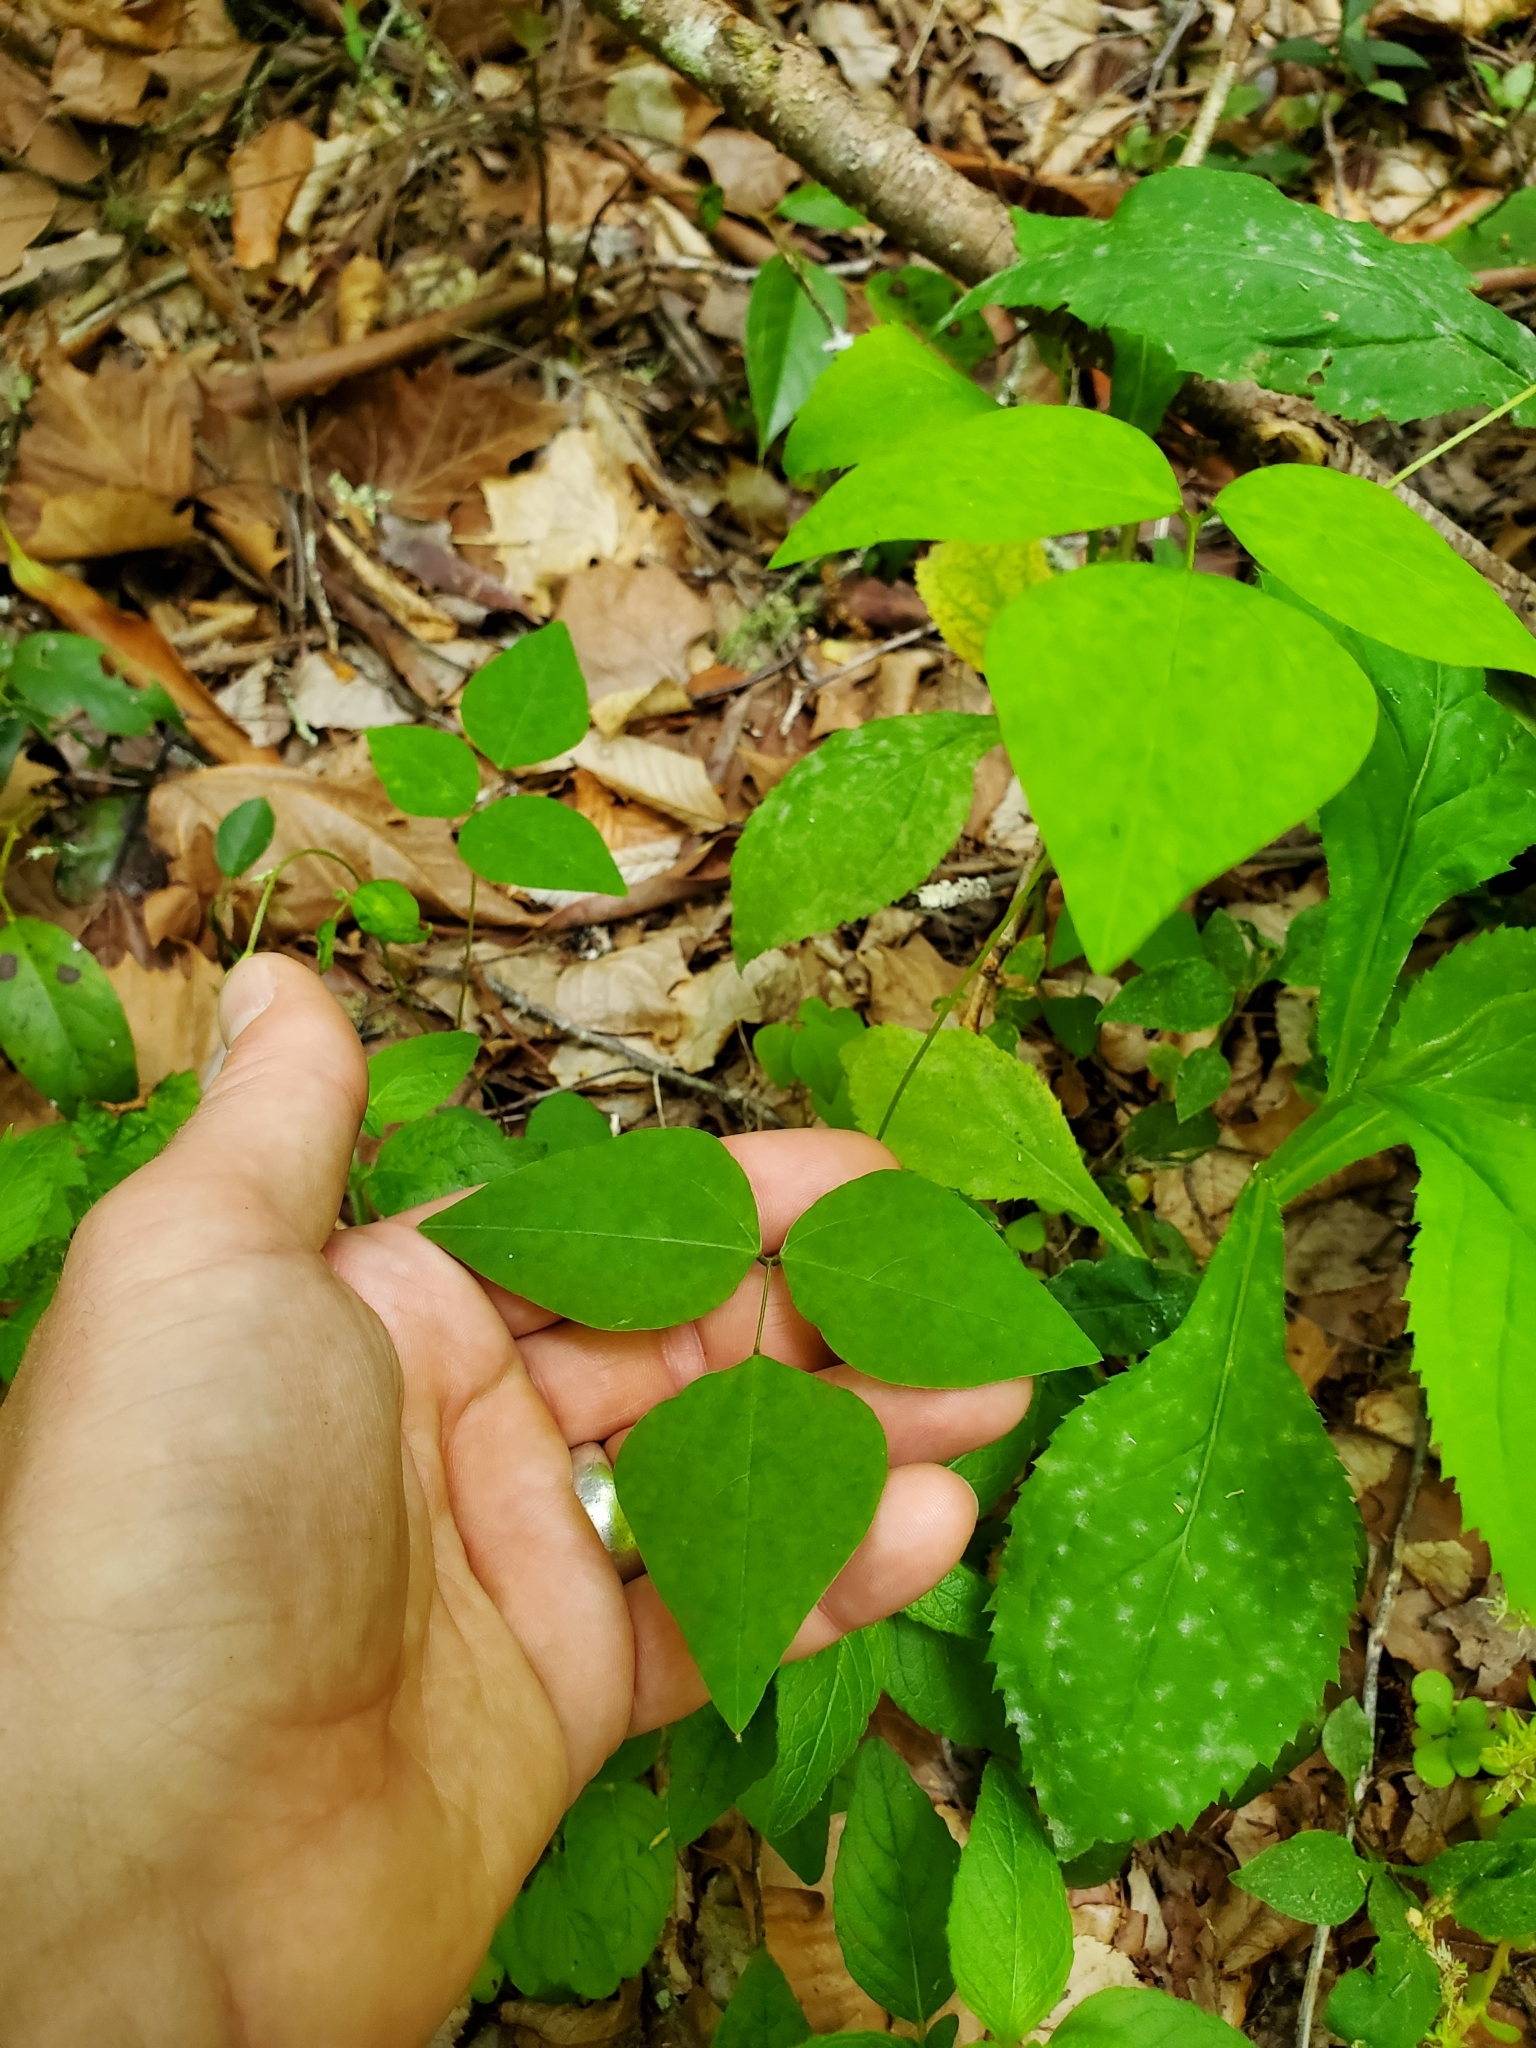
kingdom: Plantae
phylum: Tracheophyta
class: Magnoliopsida
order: Fabales
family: Fabaceae
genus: Amphicarpaea
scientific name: Amphicarpaea bracteata
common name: American hog peanut
